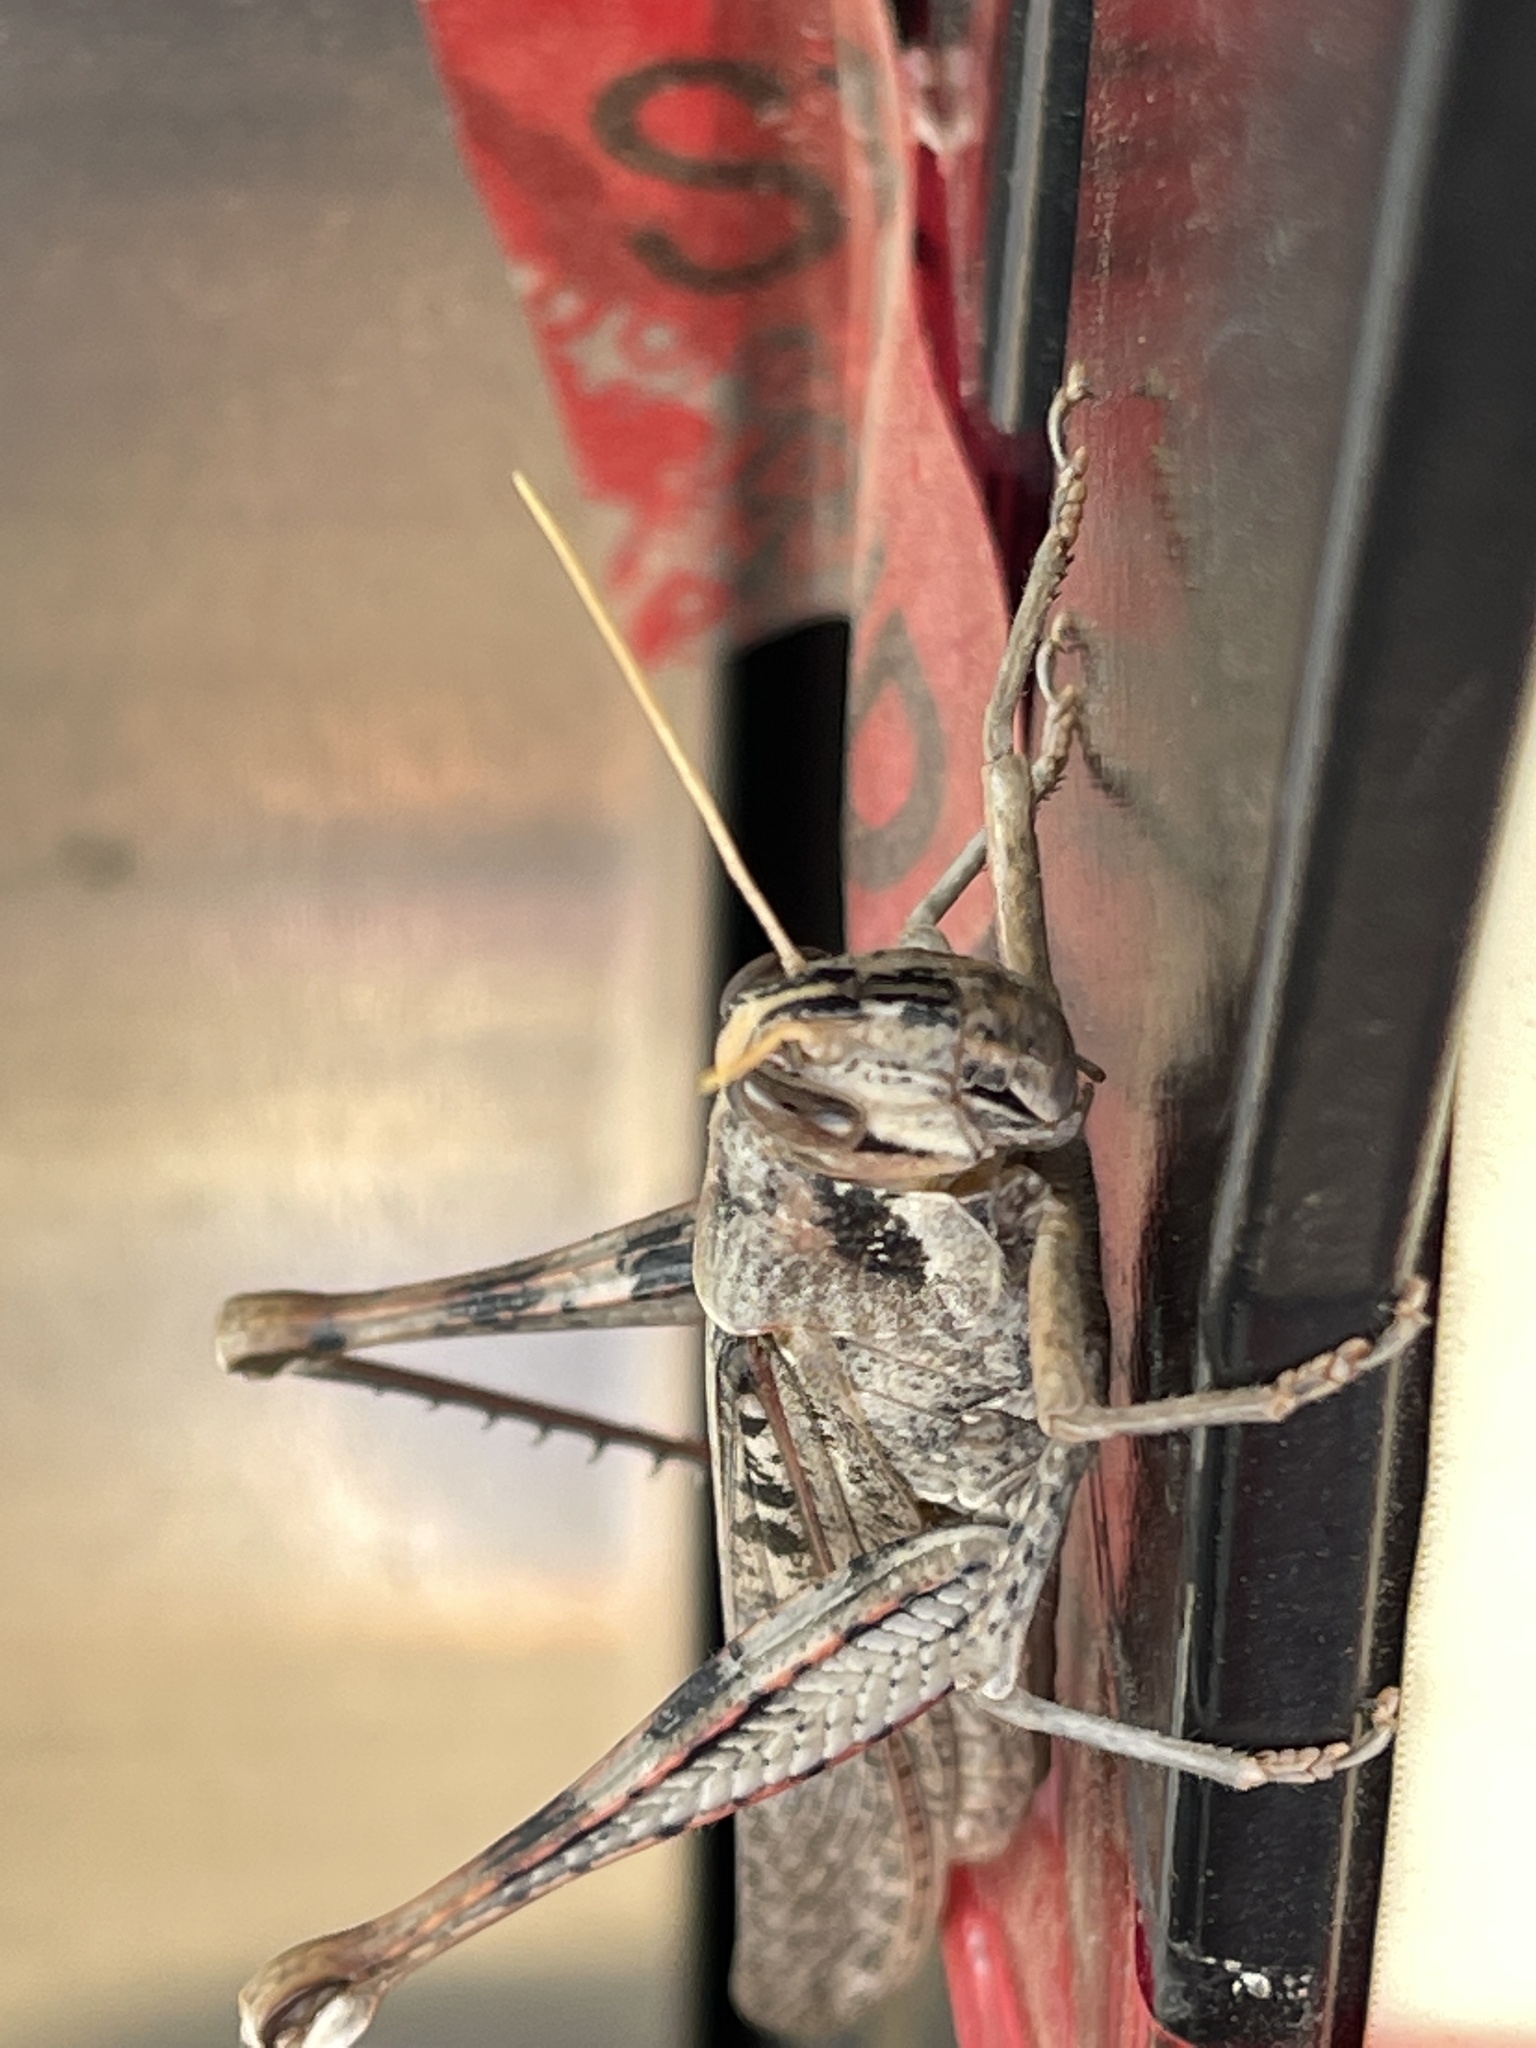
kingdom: Animalia
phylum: Arthropoda
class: Insecta
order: Orthoptera
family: Acrididae
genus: Schistocerca
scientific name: Schistocerca nitens
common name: Vagrant grasshopper
